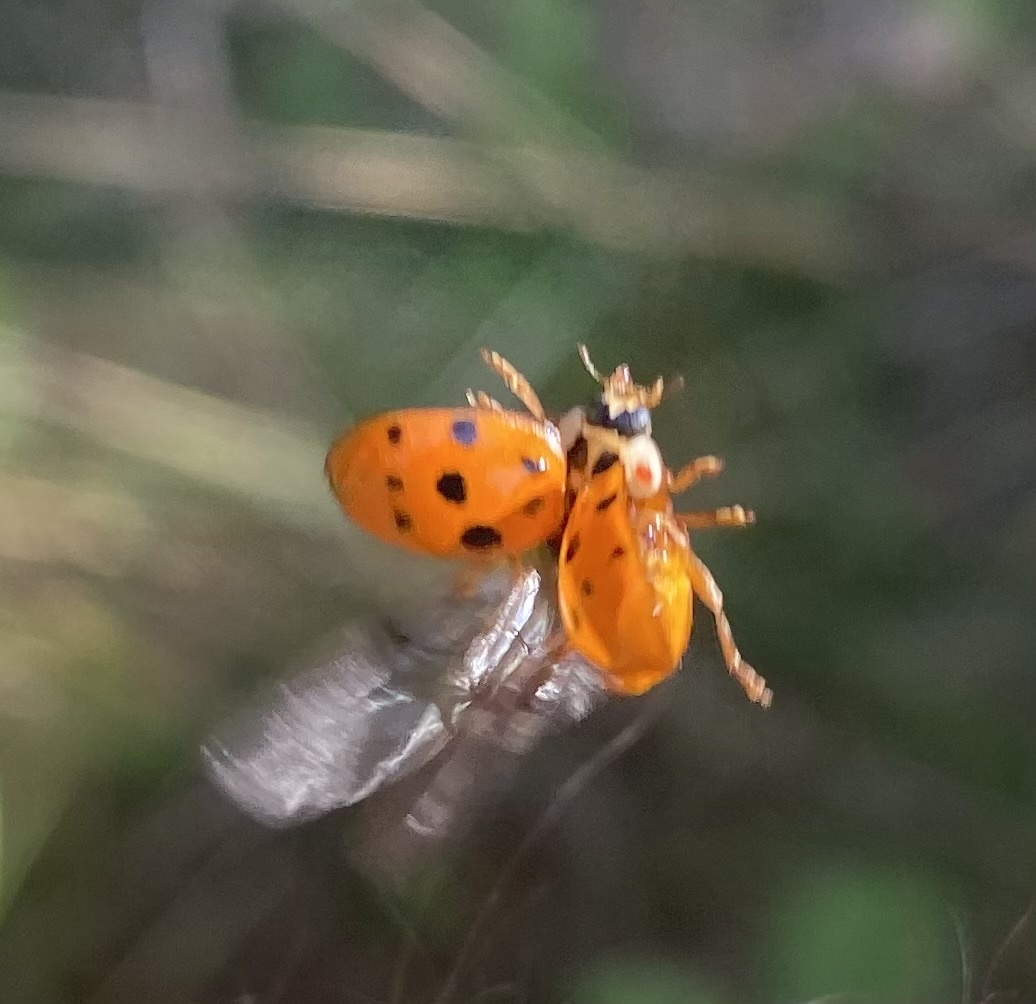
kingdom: Animalia
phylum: Arthropoda
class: Insecta
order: Coleoptera
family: Coccinellidae
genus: Harmonia
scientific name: Harmonia axyridis
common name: Harlequin ladybird
